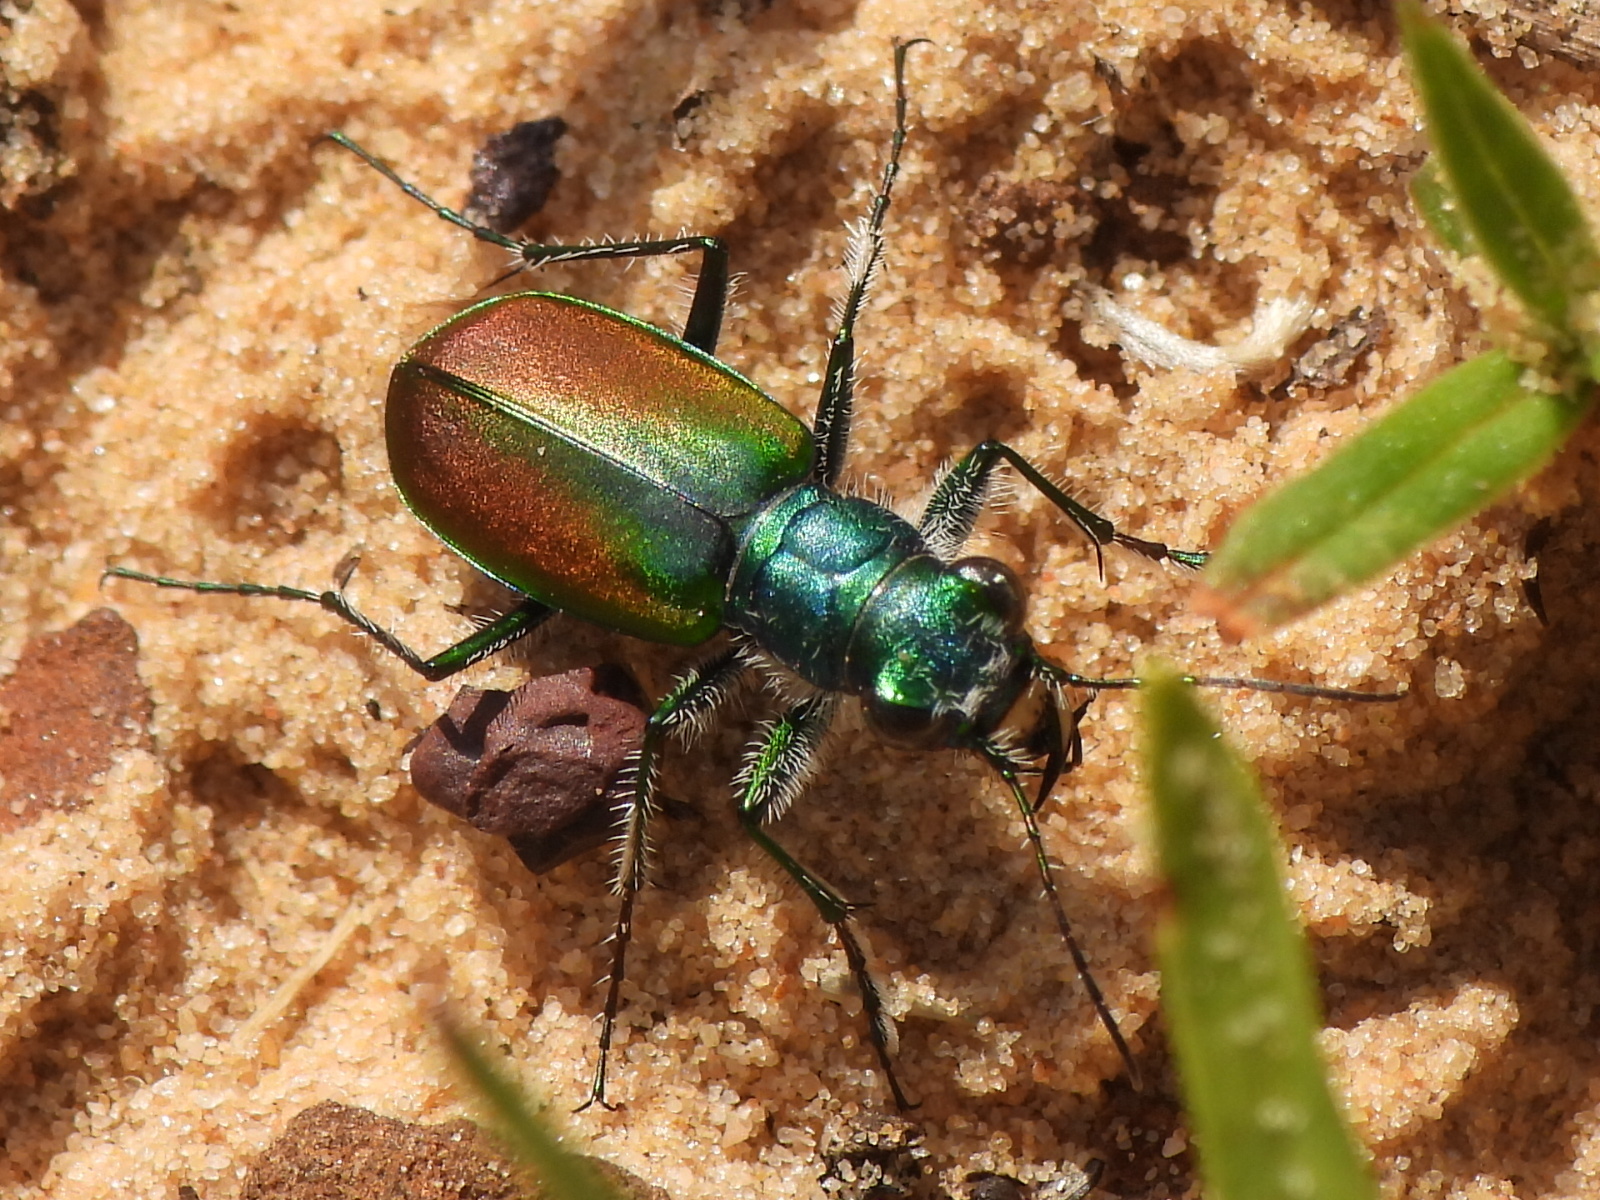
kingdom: Animalia
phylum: Arthropoda
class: Insecta
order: Coleoptera
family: Carabidae
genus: Cicindela
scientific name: Cicindela scutellaris
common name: Festive tiger beetle
